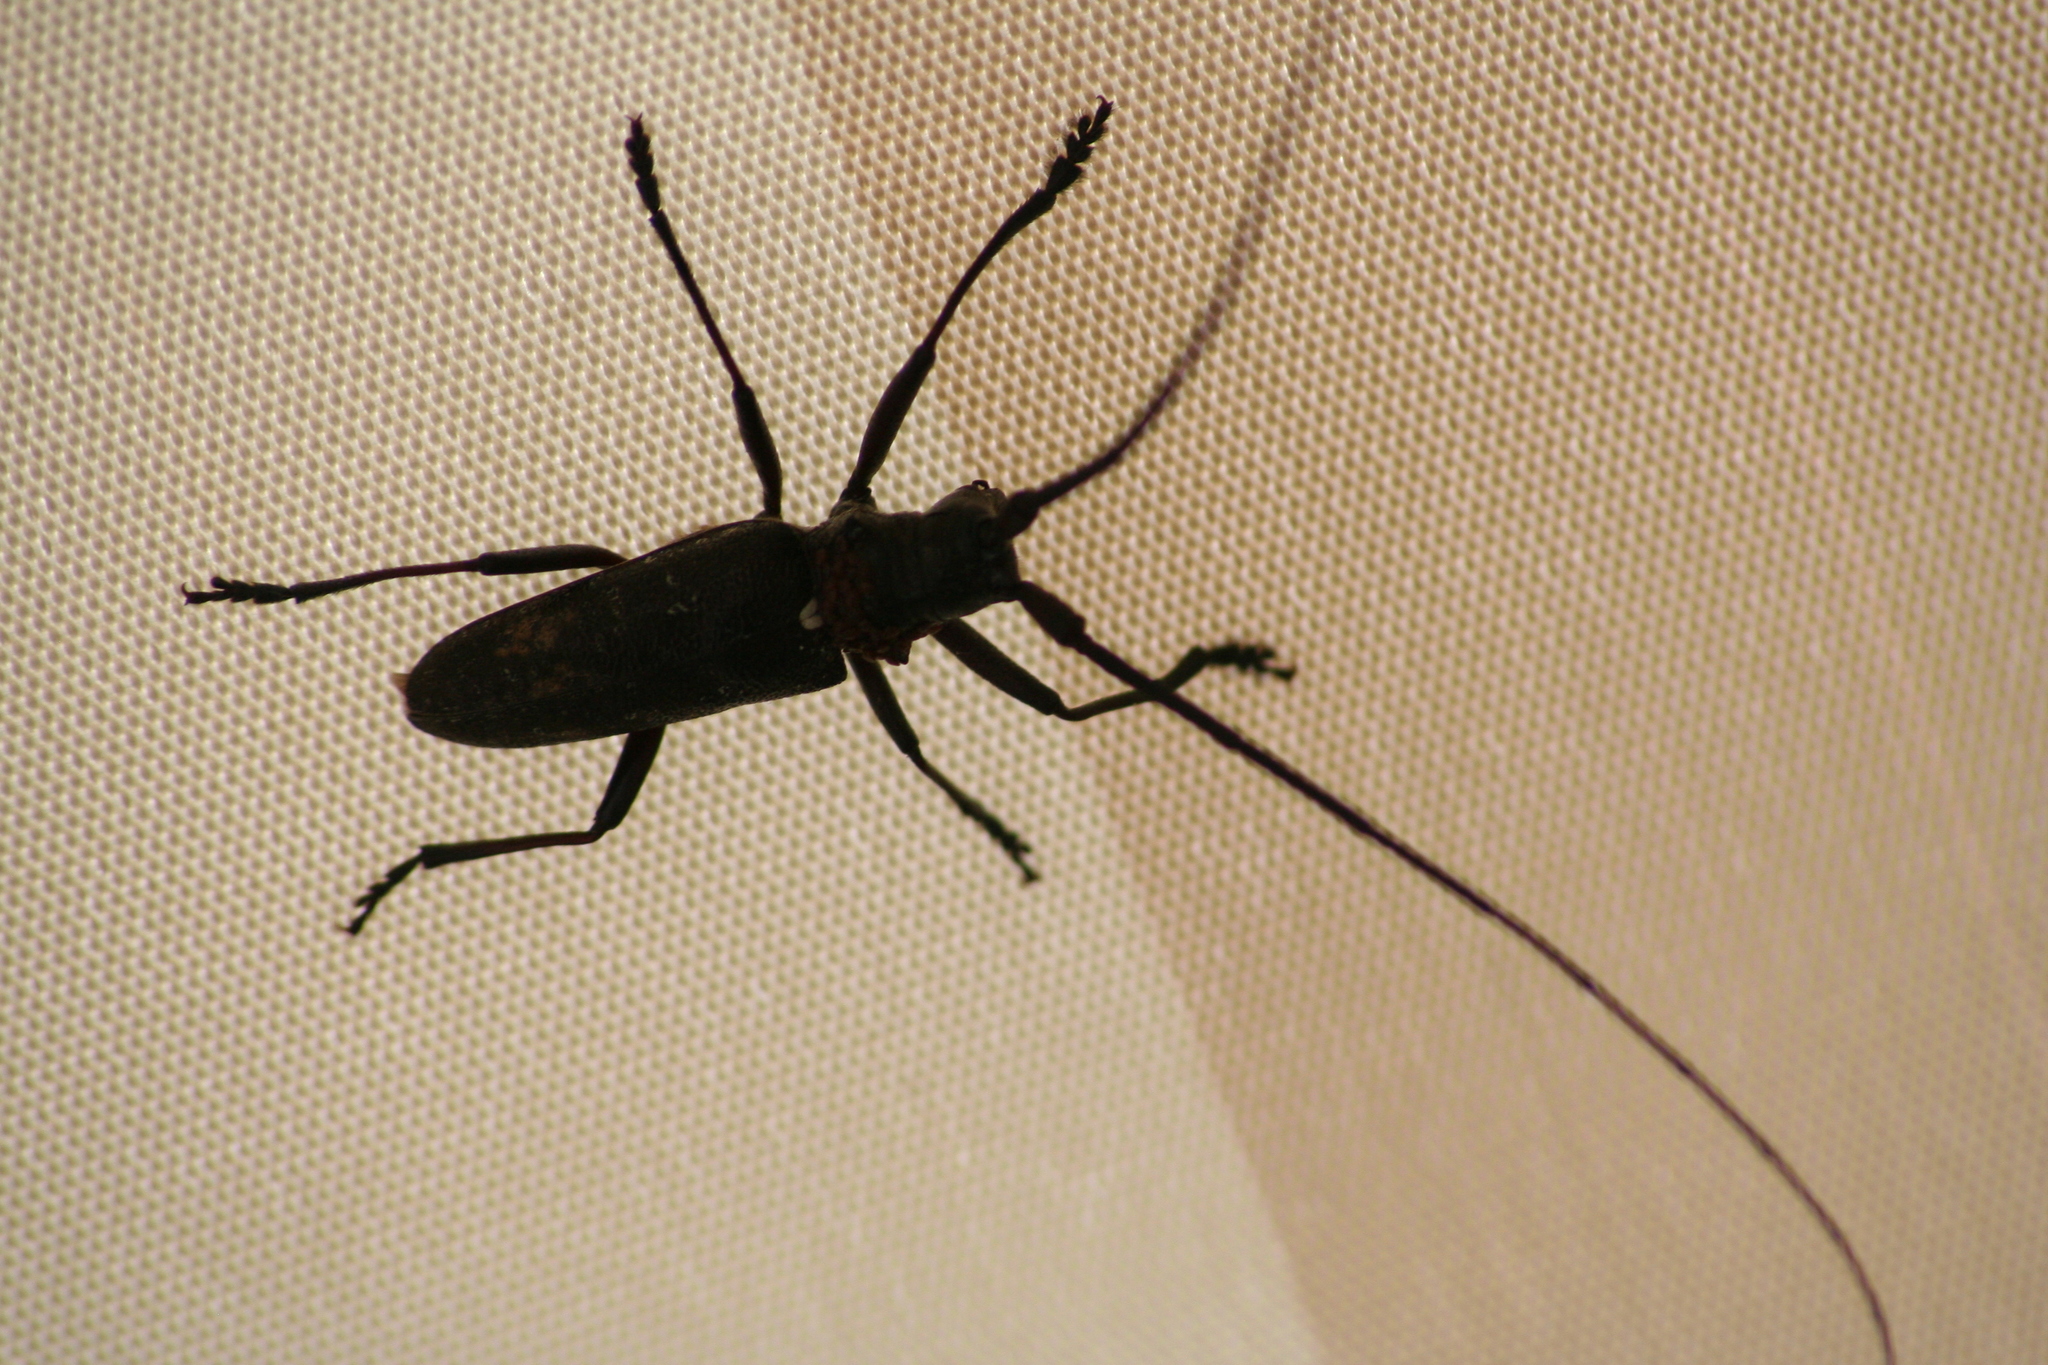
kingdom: Animalia
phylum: Arthropoda
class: Insecta
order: Coleoptera
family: Cerambycidae
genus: Monochamus
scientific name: Monochamus scutellatus
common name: White-spotted sawyer beetle
